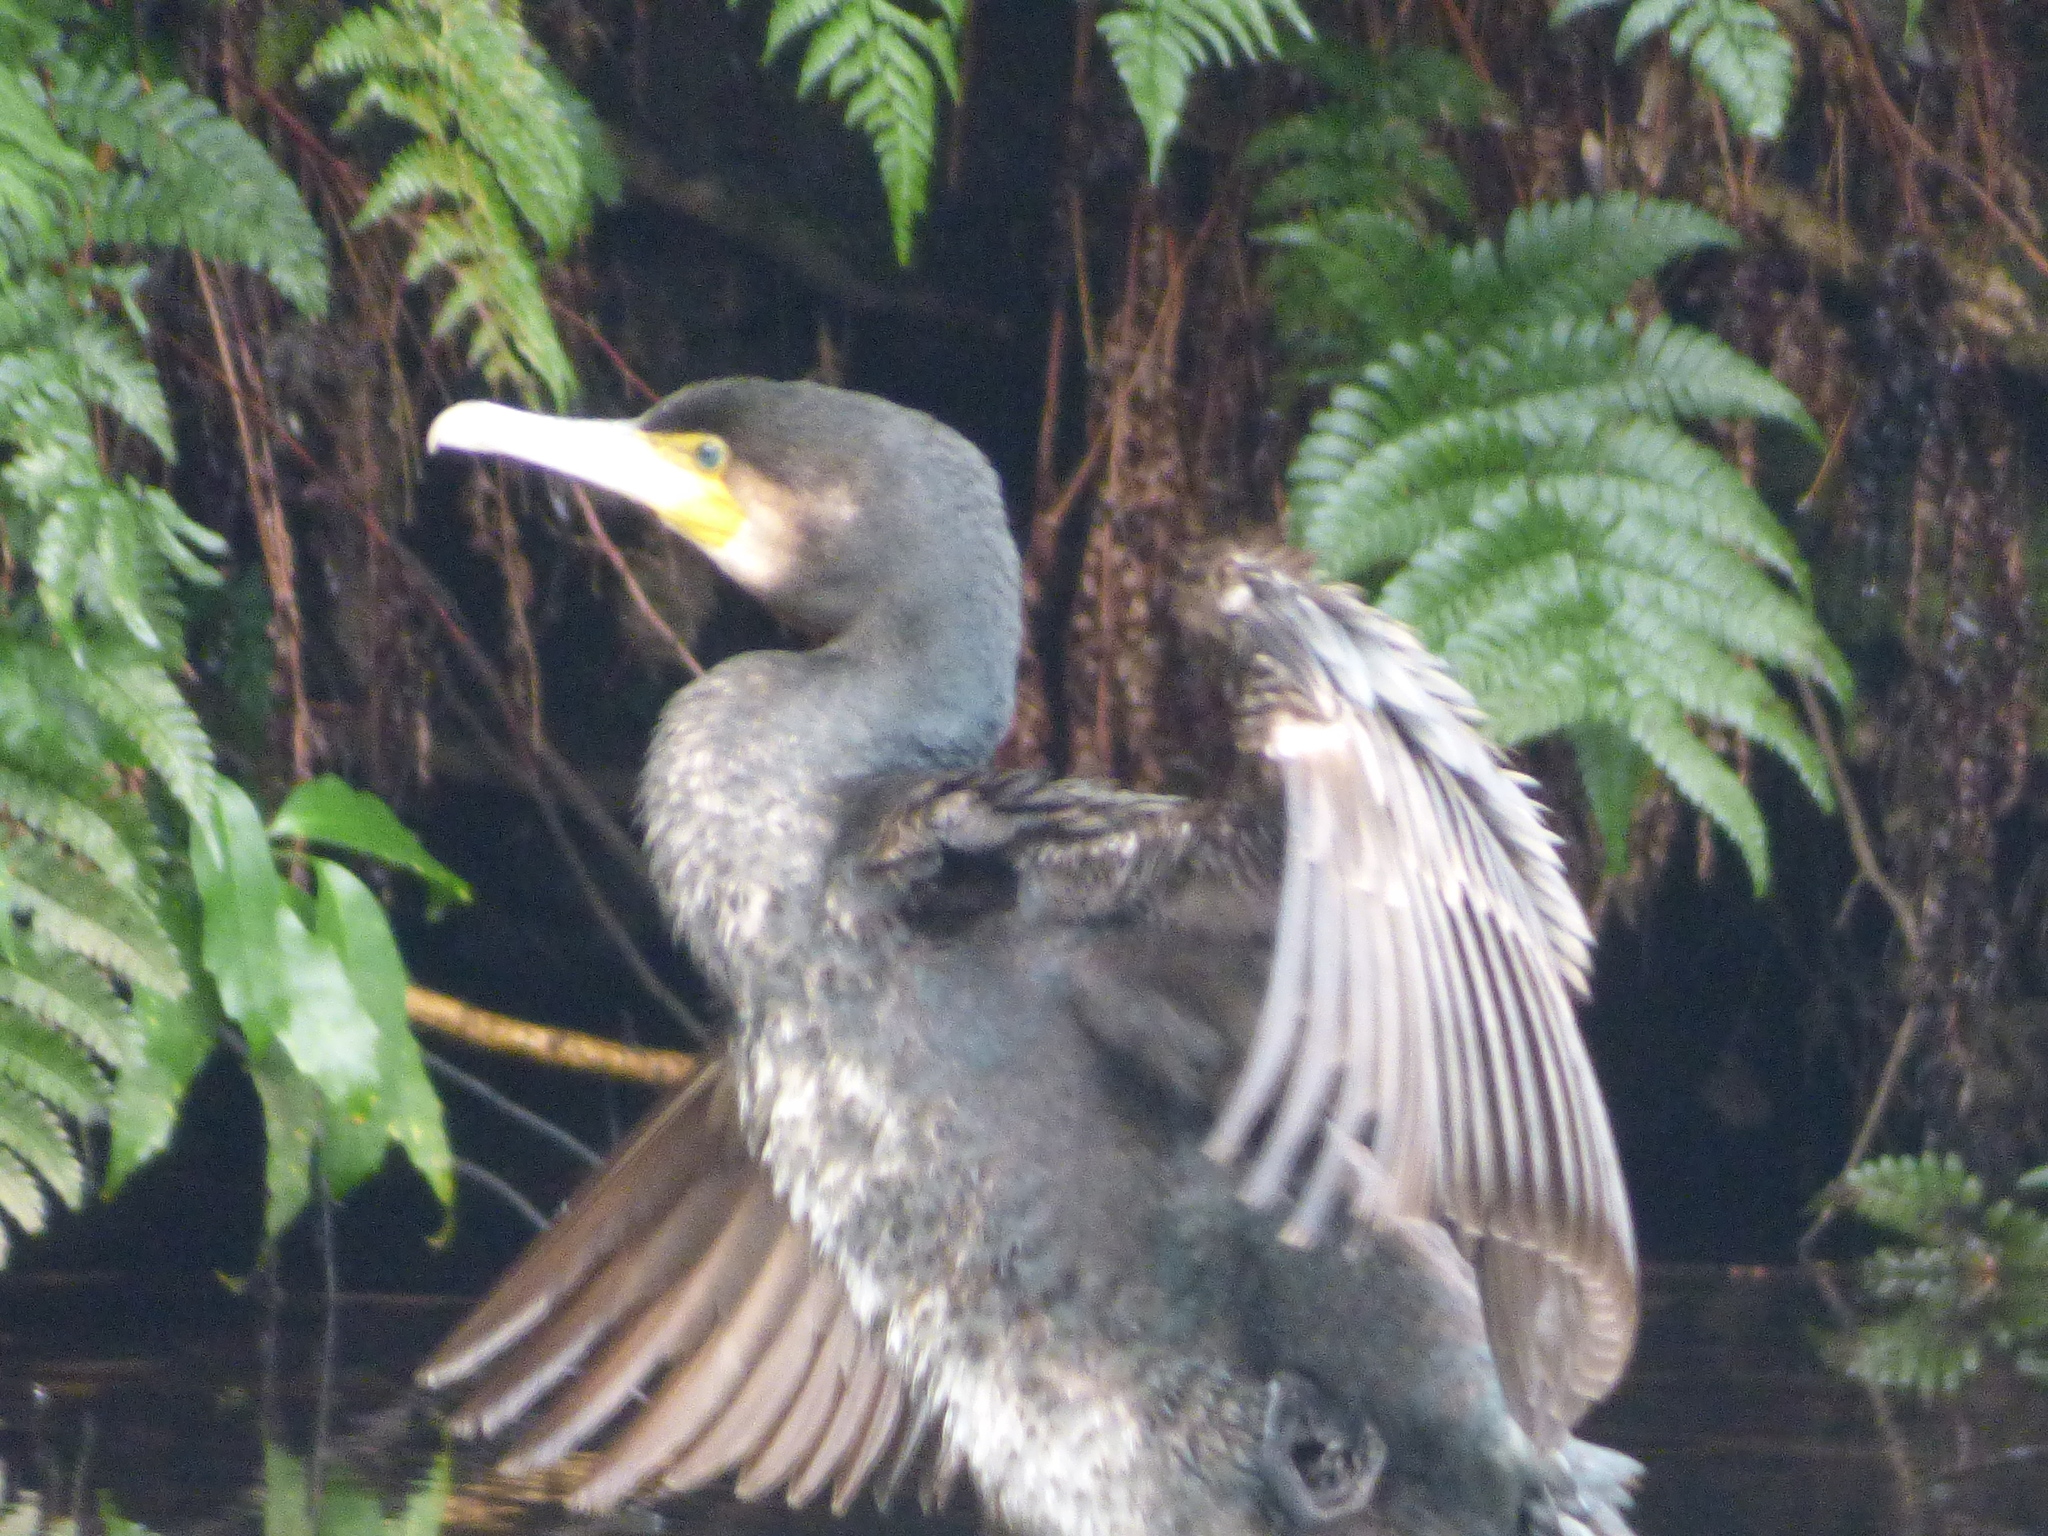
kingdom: Animalia
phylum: Chordata
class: Aves
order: Suliformes
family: Phalacrocoracidae
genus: Phalacrocorax
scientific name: Phalacrocorax carbo
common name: Great cormorant
